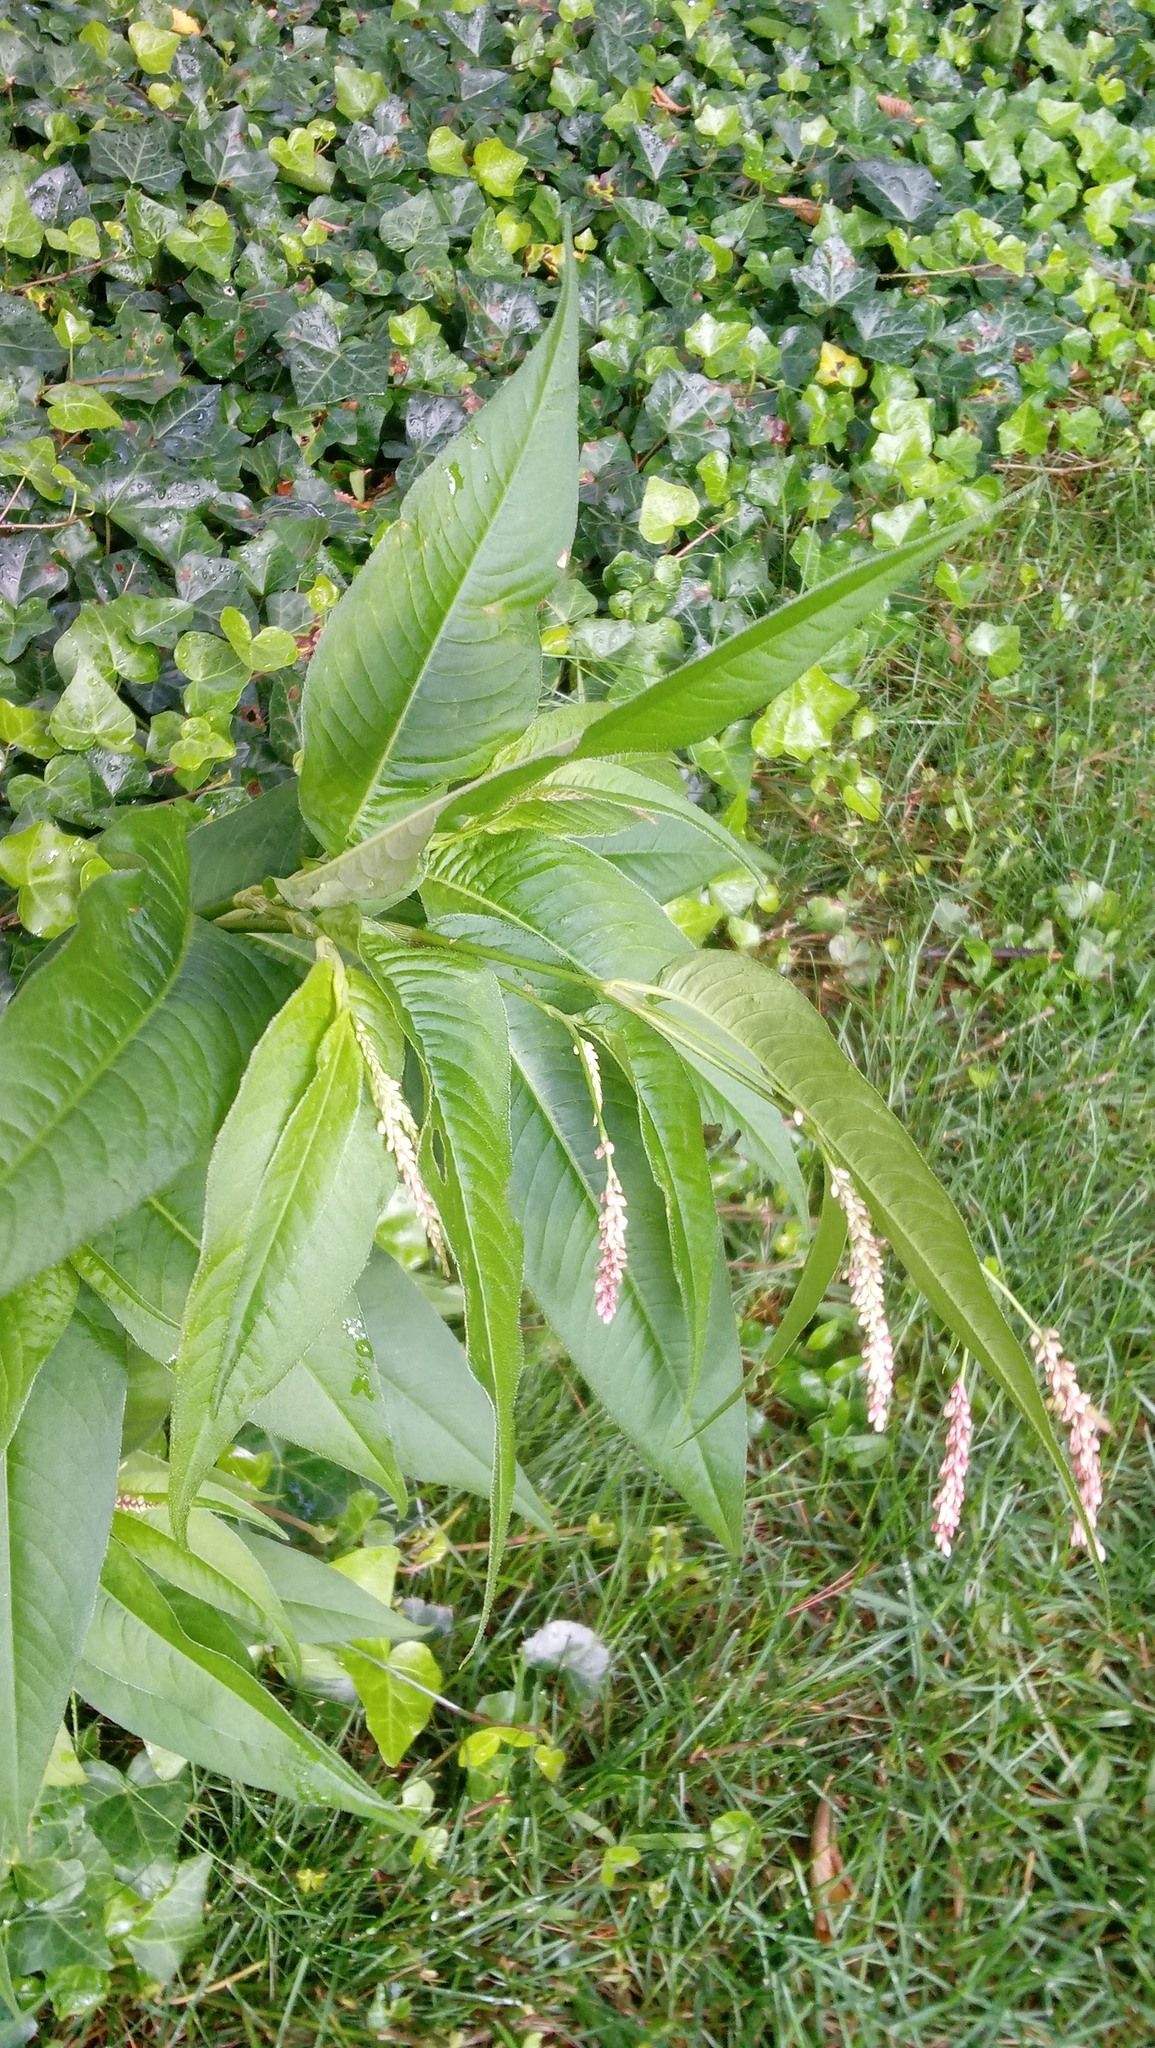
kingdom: Plantae
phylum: Tracheophyta
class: Magnoliopsida
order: Caryophyllales
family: Polygonaceae
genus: Persicaria
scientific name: Persicaria lapathifolia
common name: Curlytop knotweed
